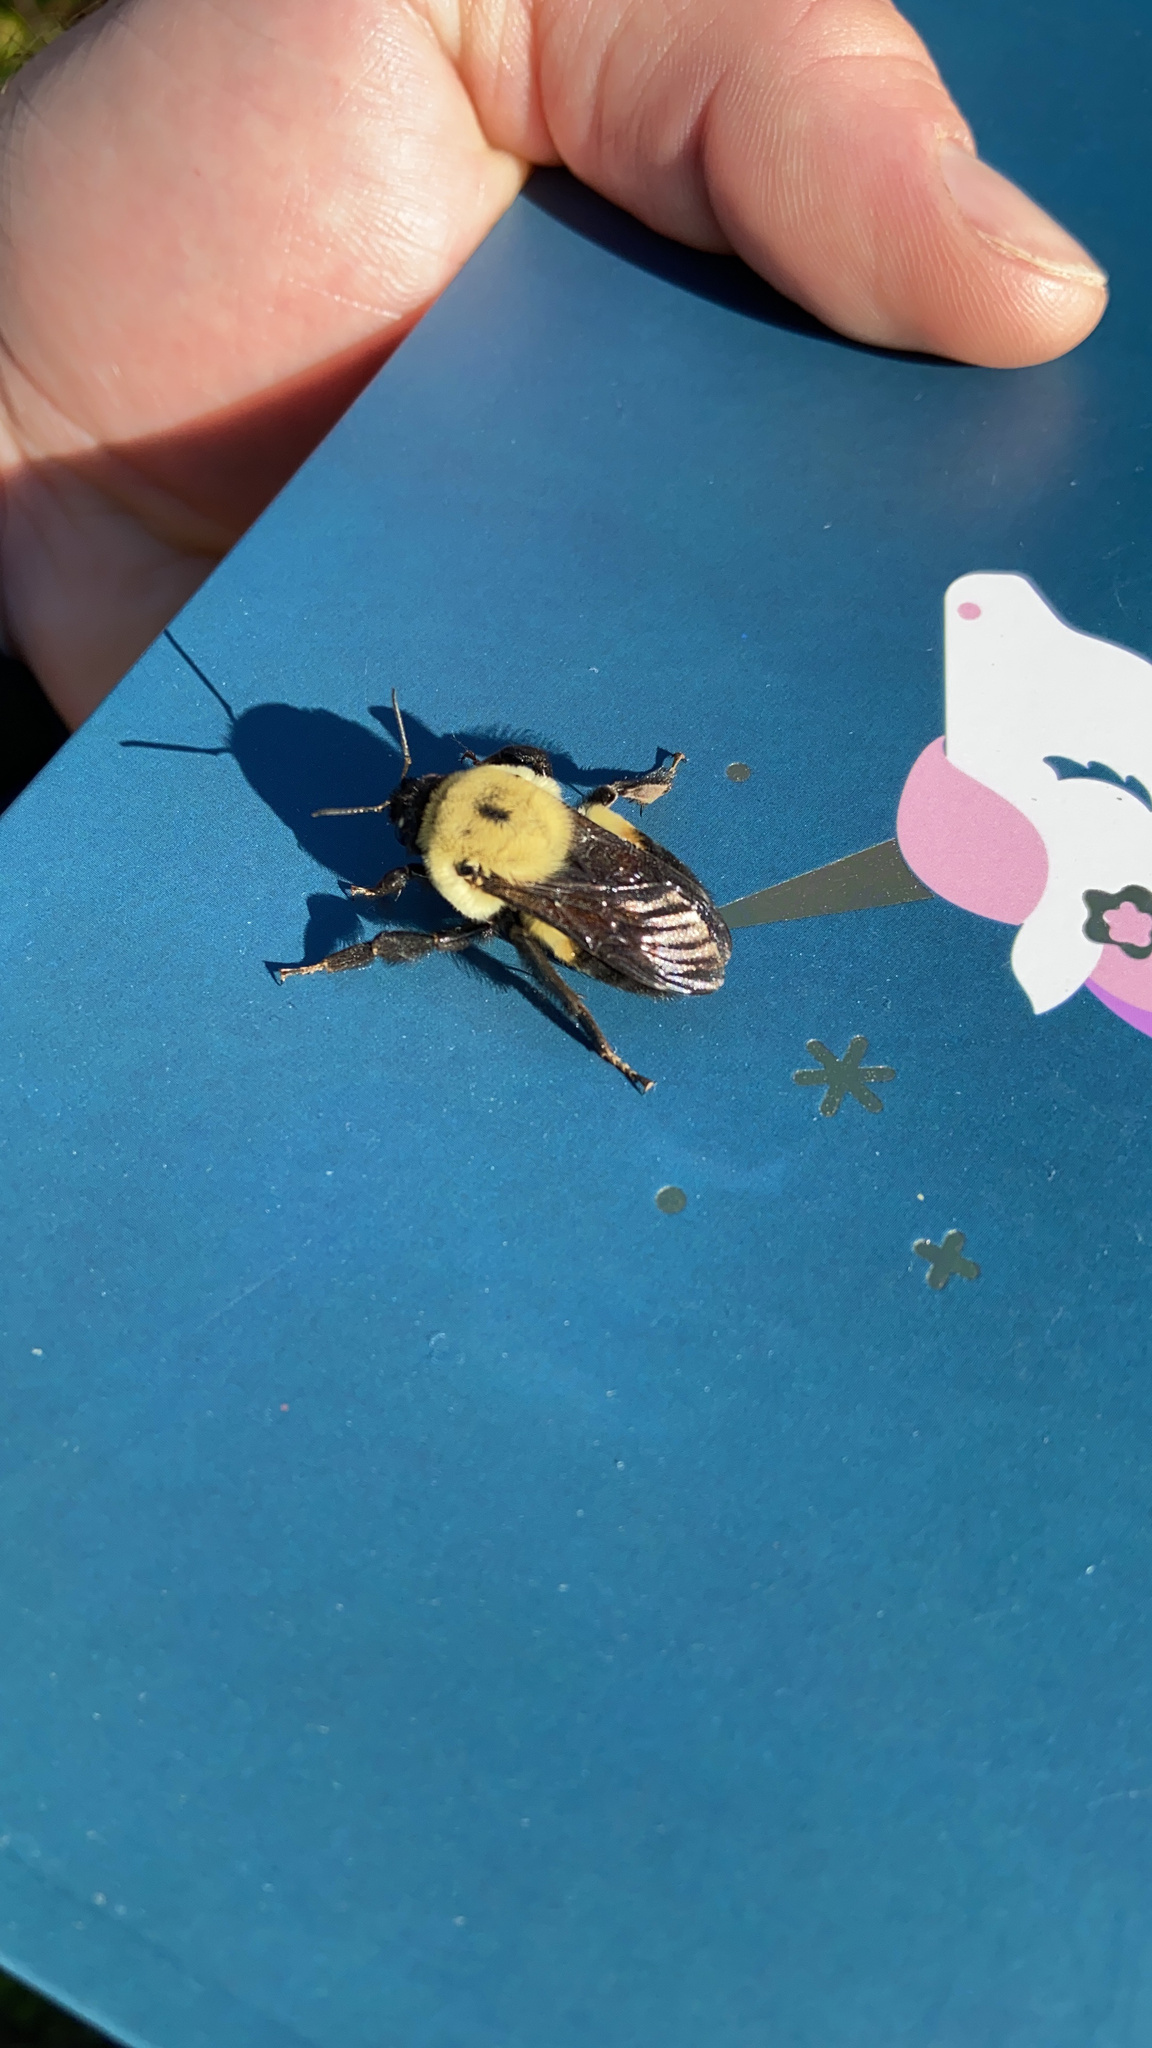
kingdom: Animalia
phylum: Arthropoda
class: Insecta
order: Hymenoptera
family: Apidae
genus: Bombus
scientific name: Bombus griseocollis
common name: Brown-belted bumble bee
